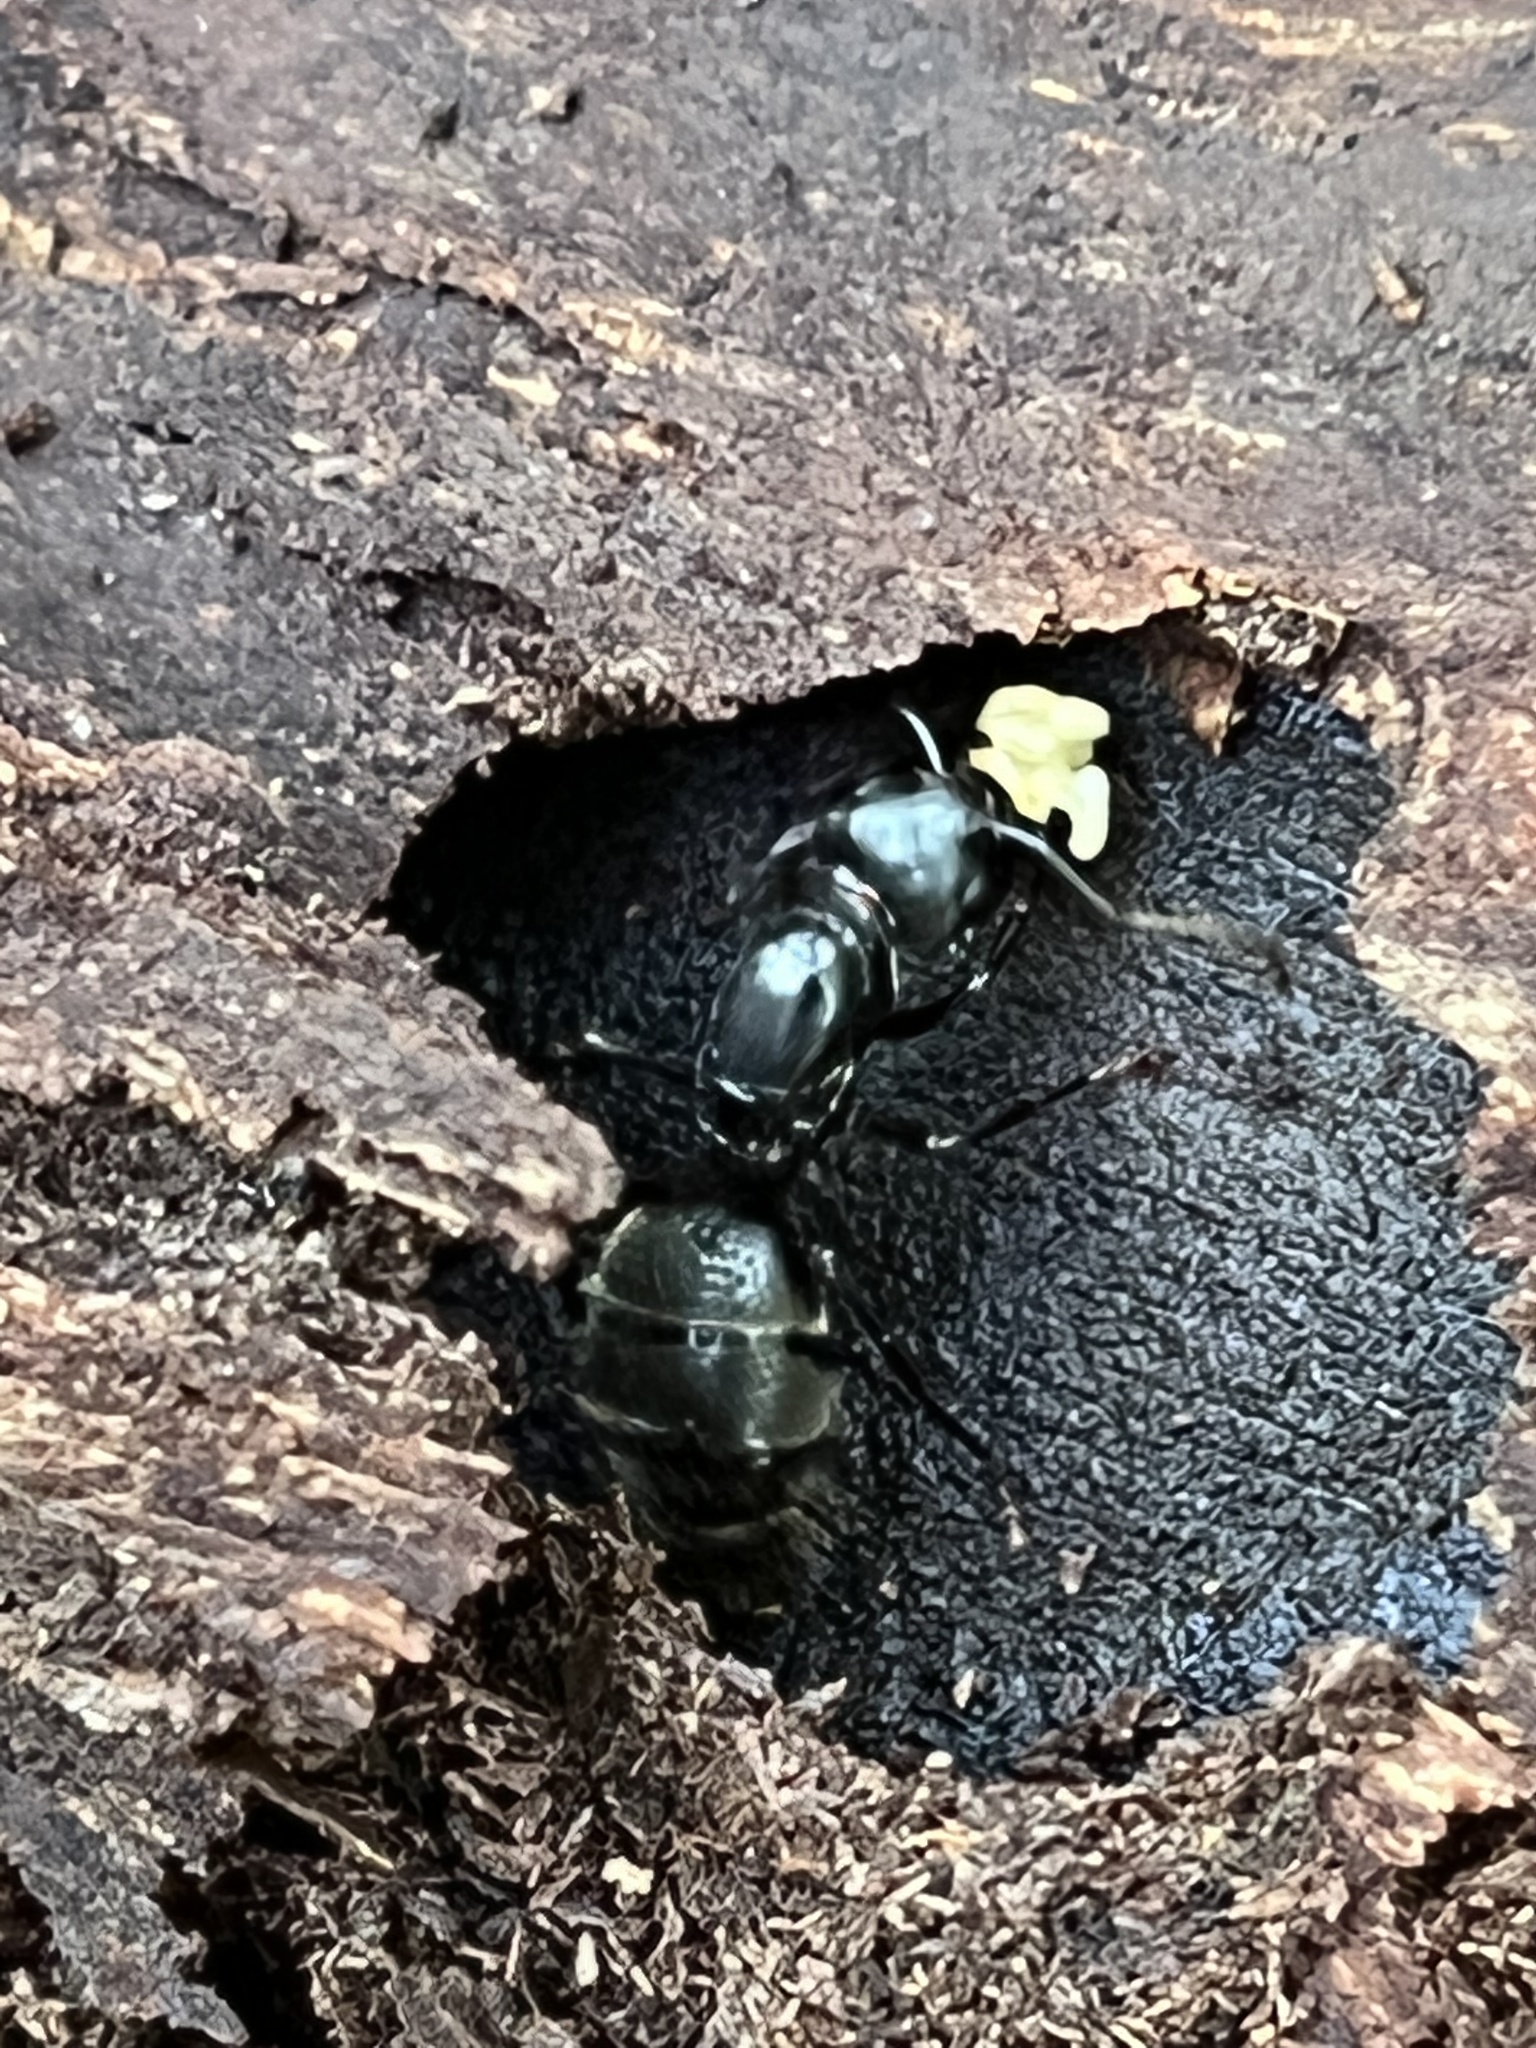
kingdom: Animalia
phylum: Arthropoda
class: Insecta
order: Hymenoptera
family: Formicidae
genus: Camponotus
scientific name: Camponotus pennsylvanicus
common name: Black carpenter ant
